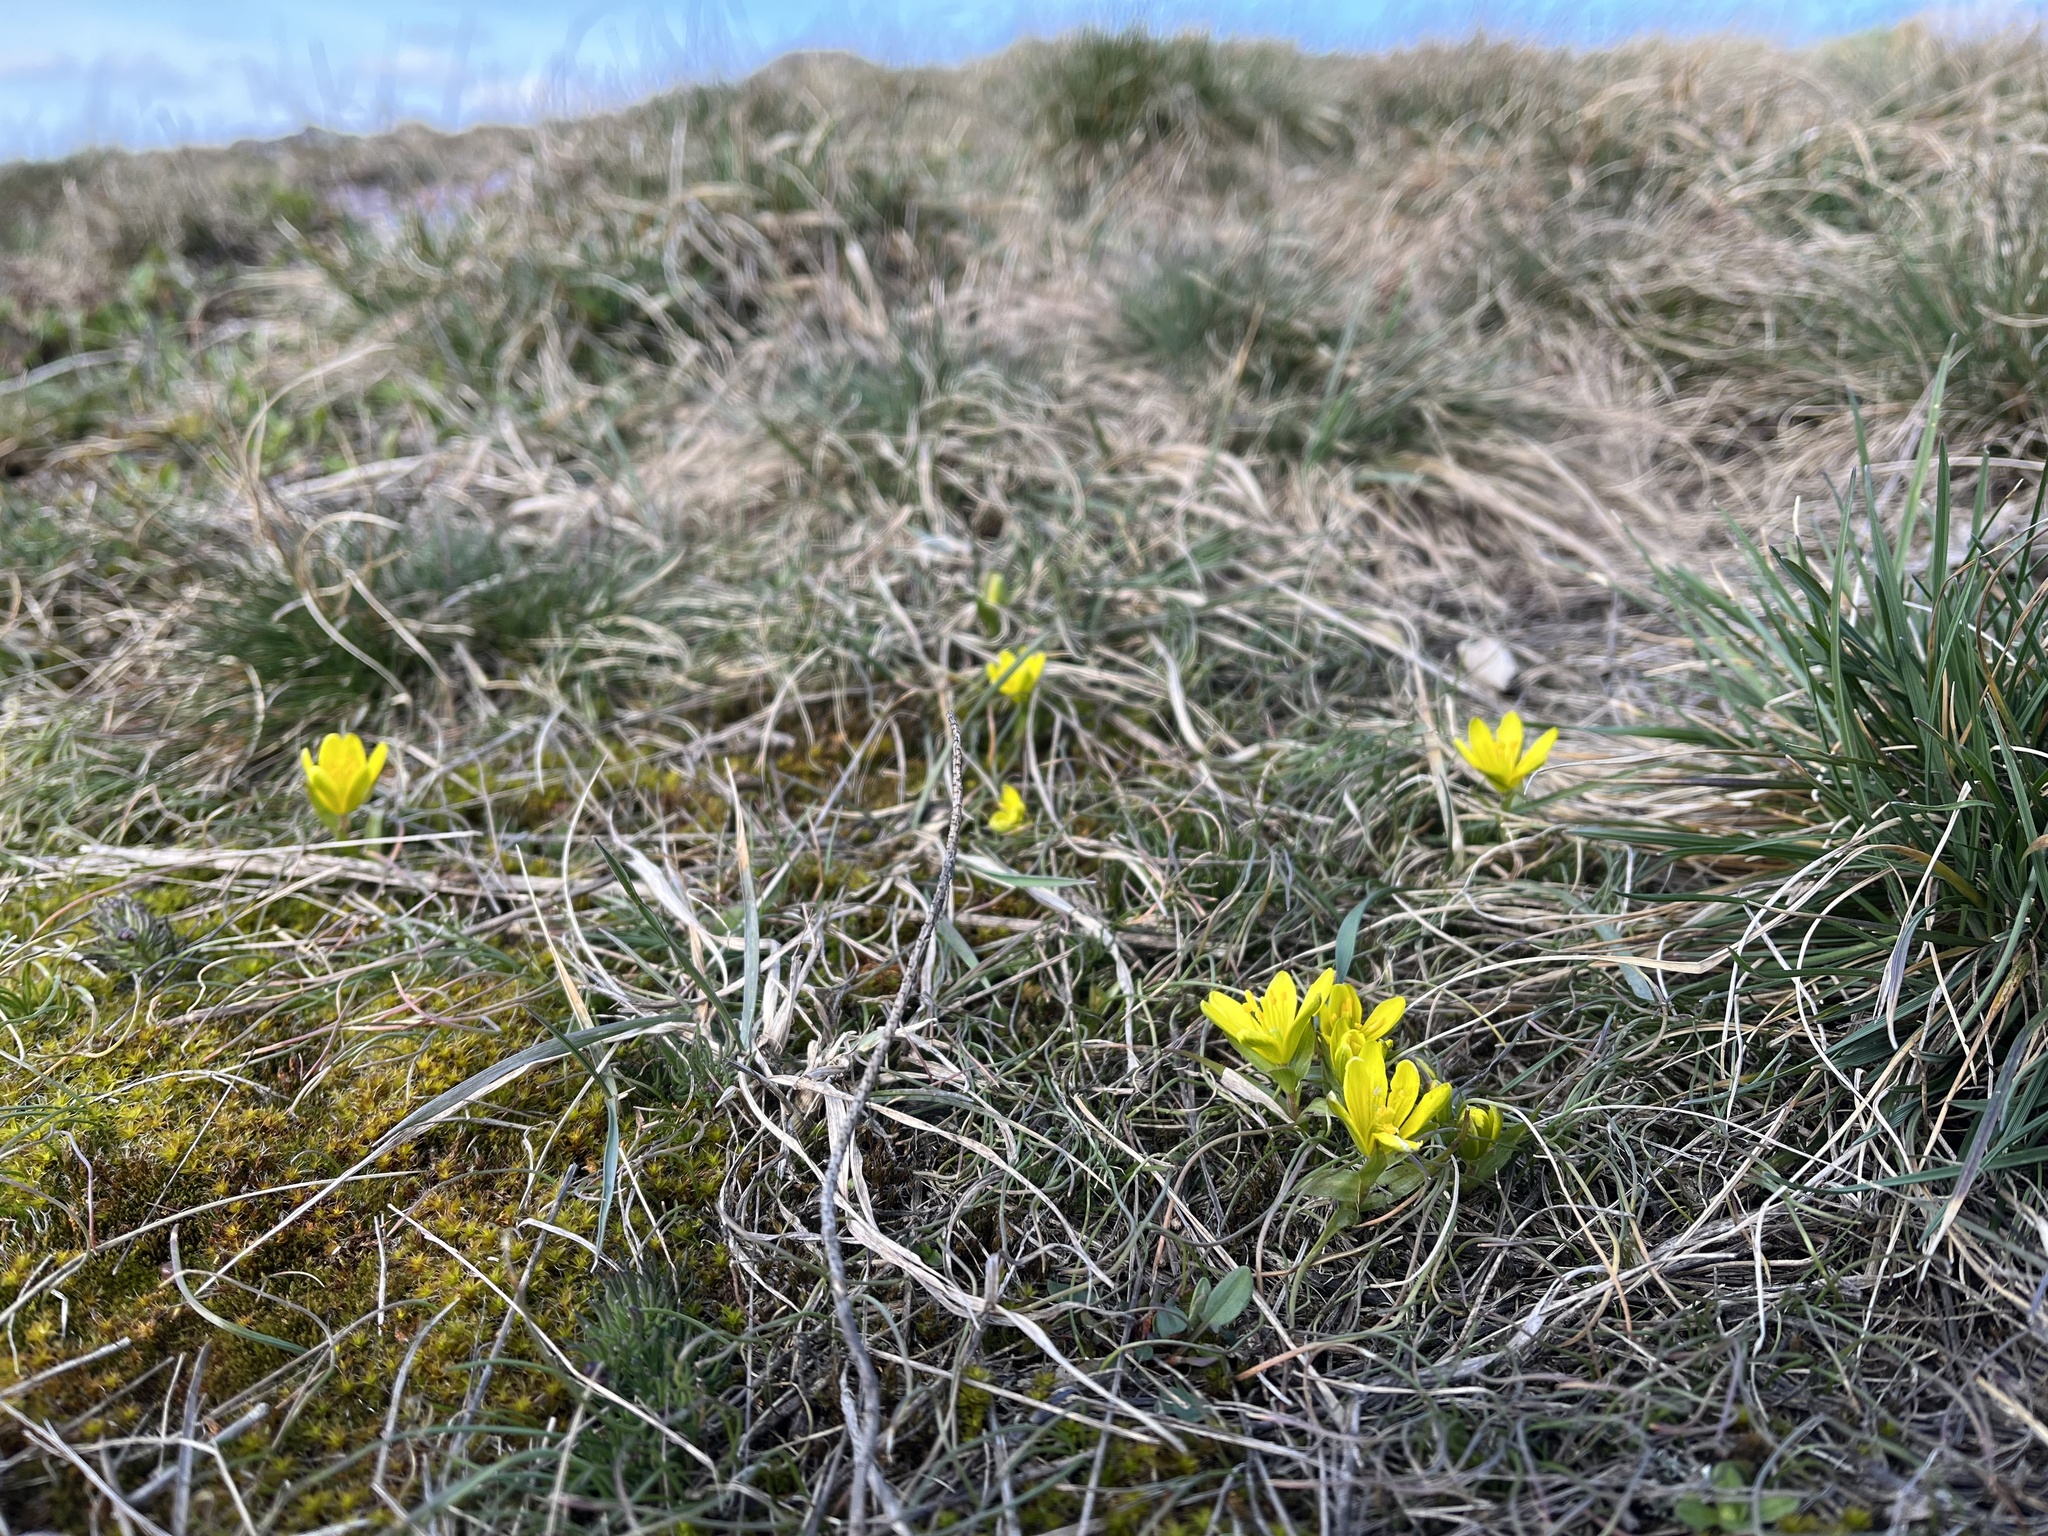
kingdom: Plantae
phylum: Tracheophyta
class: Liliopsida
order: Liliales
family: Liliaceae
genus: Gagea
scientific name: Gagea bohemica
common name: Early star-of-bethlehem
